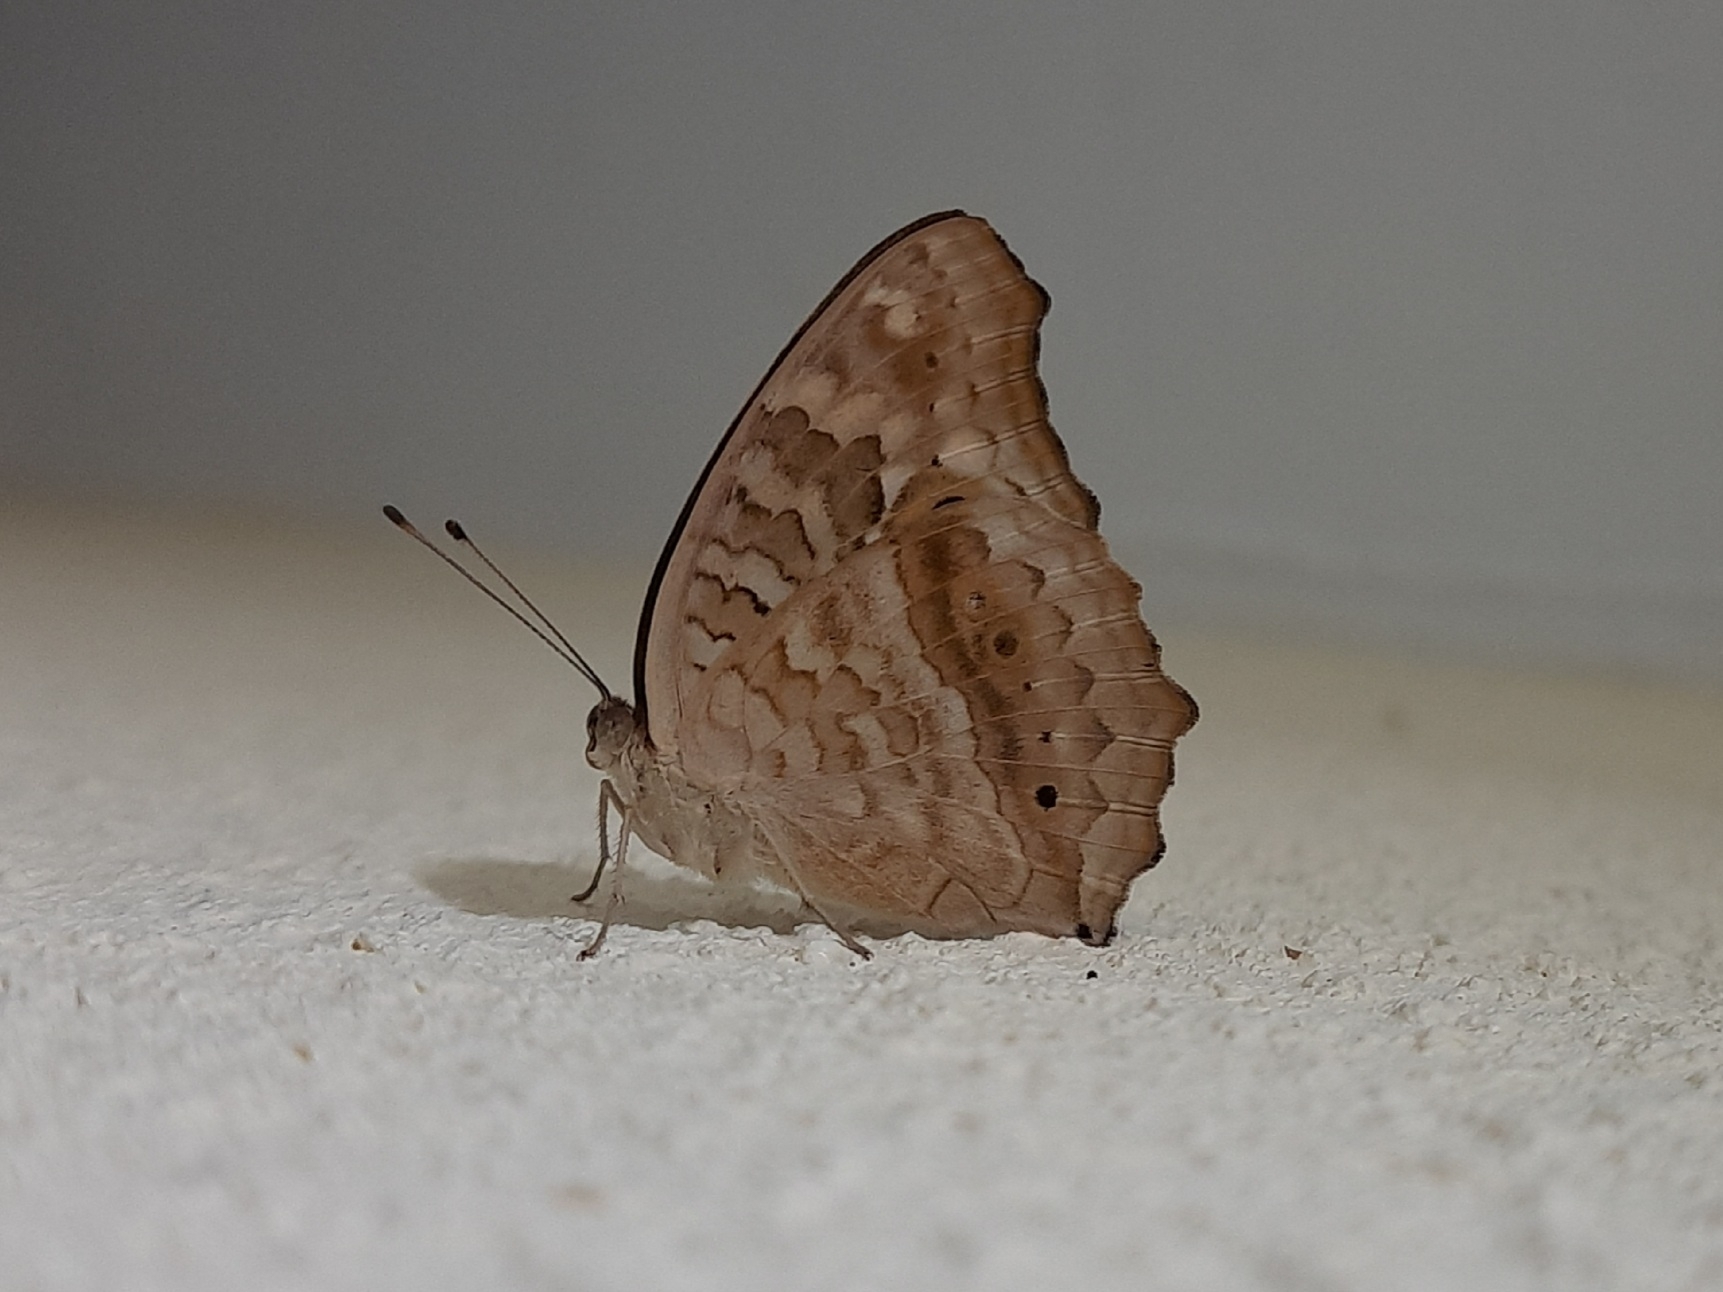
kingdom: Animalia
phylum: Arthropoda
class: Insecta
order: Lepidoptera
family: Nymphalidae
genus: Junonia
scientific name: Junonia lemonias
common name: Lemon pansy
